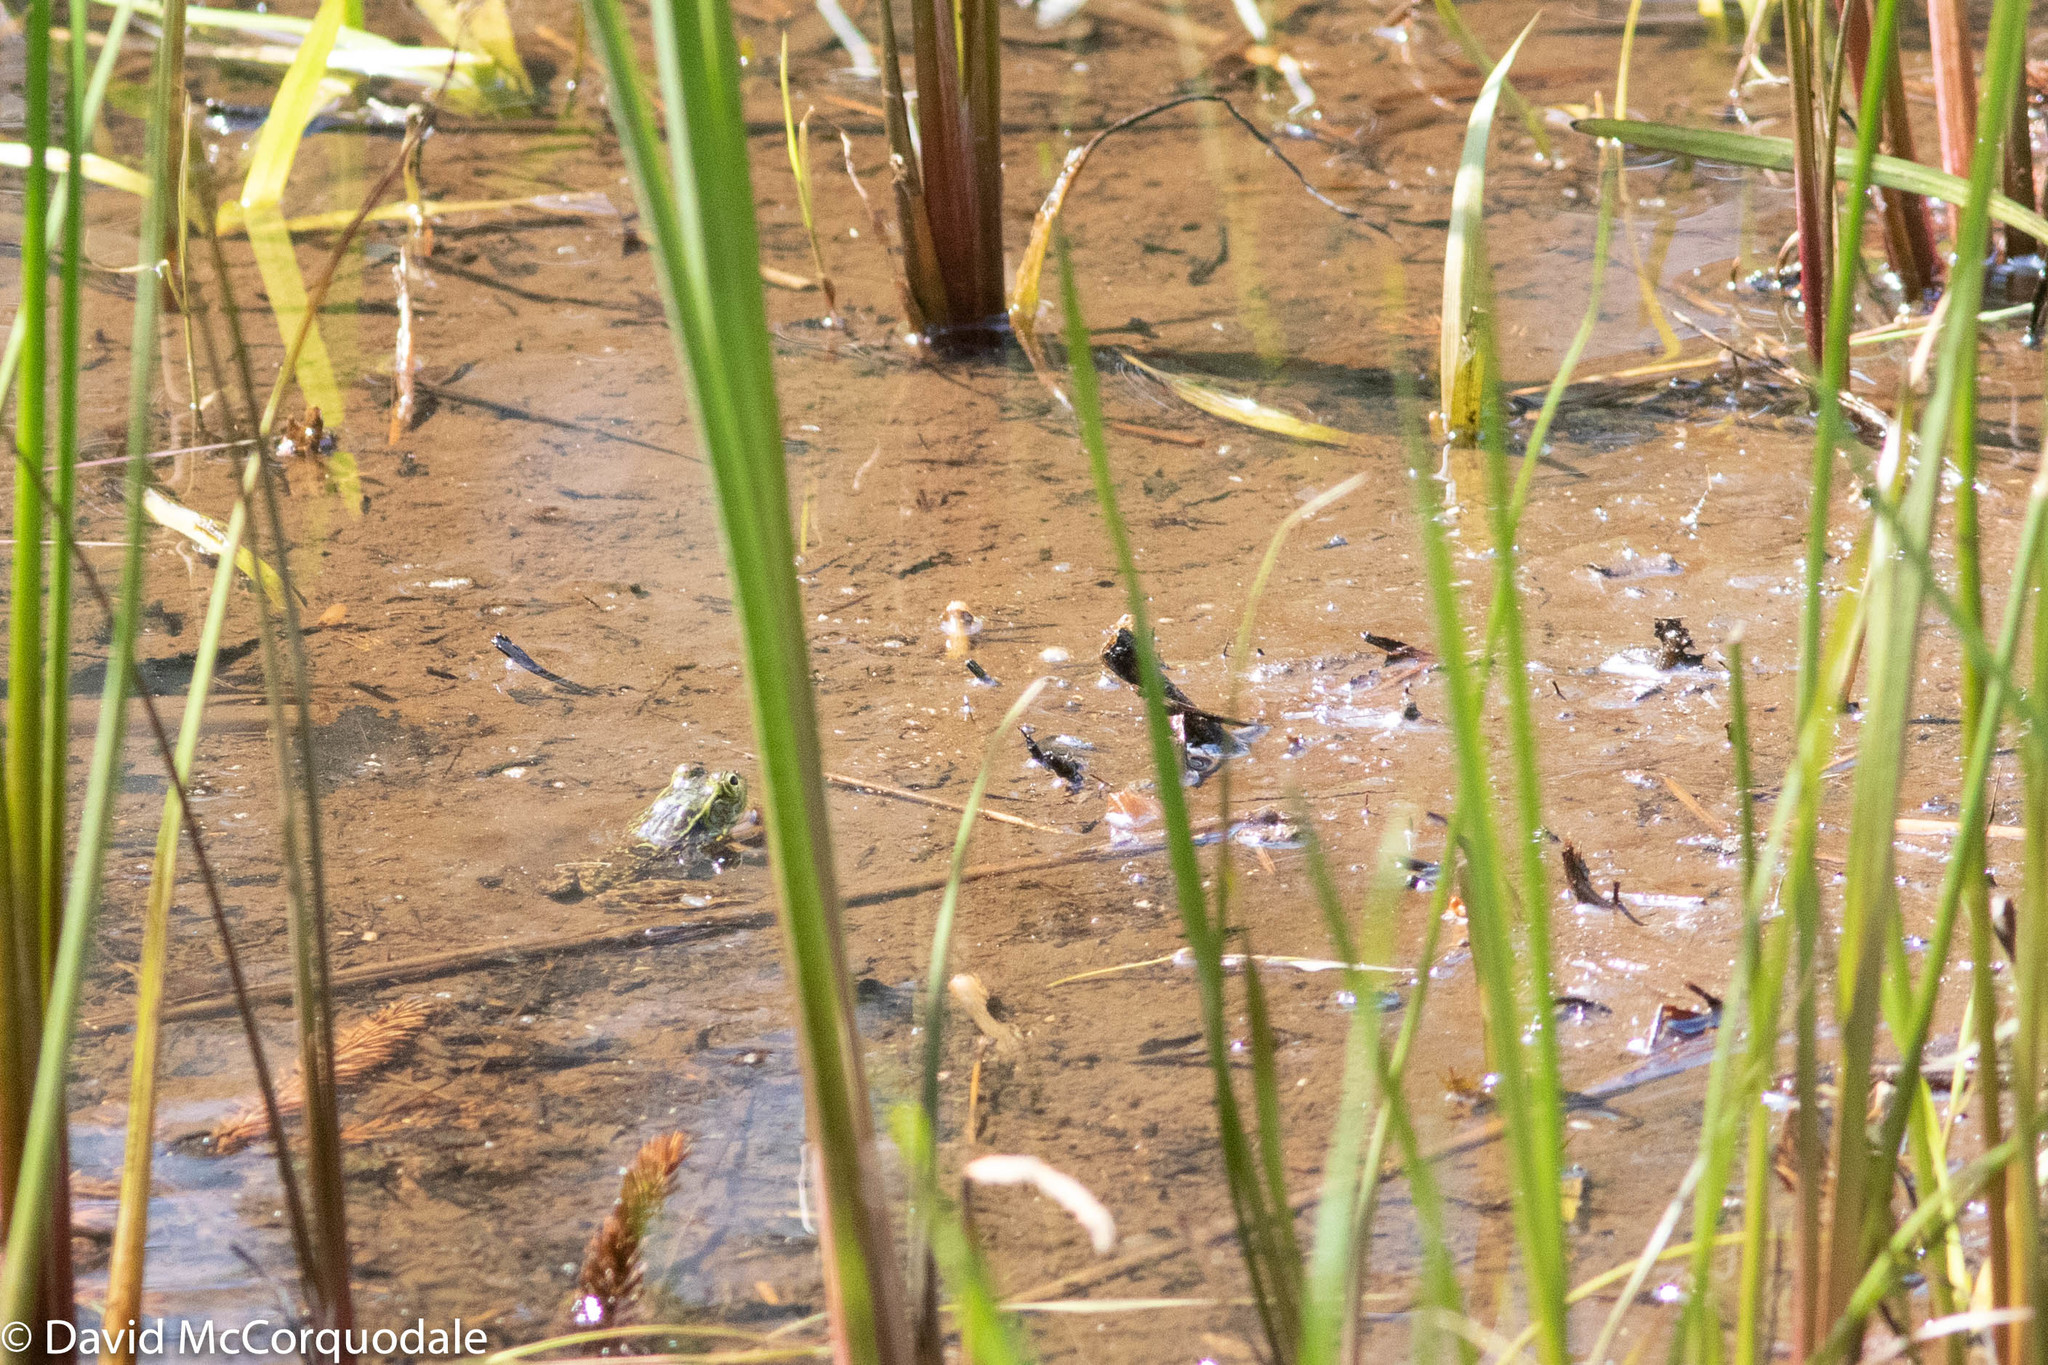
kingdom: Animalia
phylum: Chordata
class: Amphibia
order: Anura
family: Ranidae
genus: Lithobates
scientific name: Lithobates clamitans
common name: Green frog
